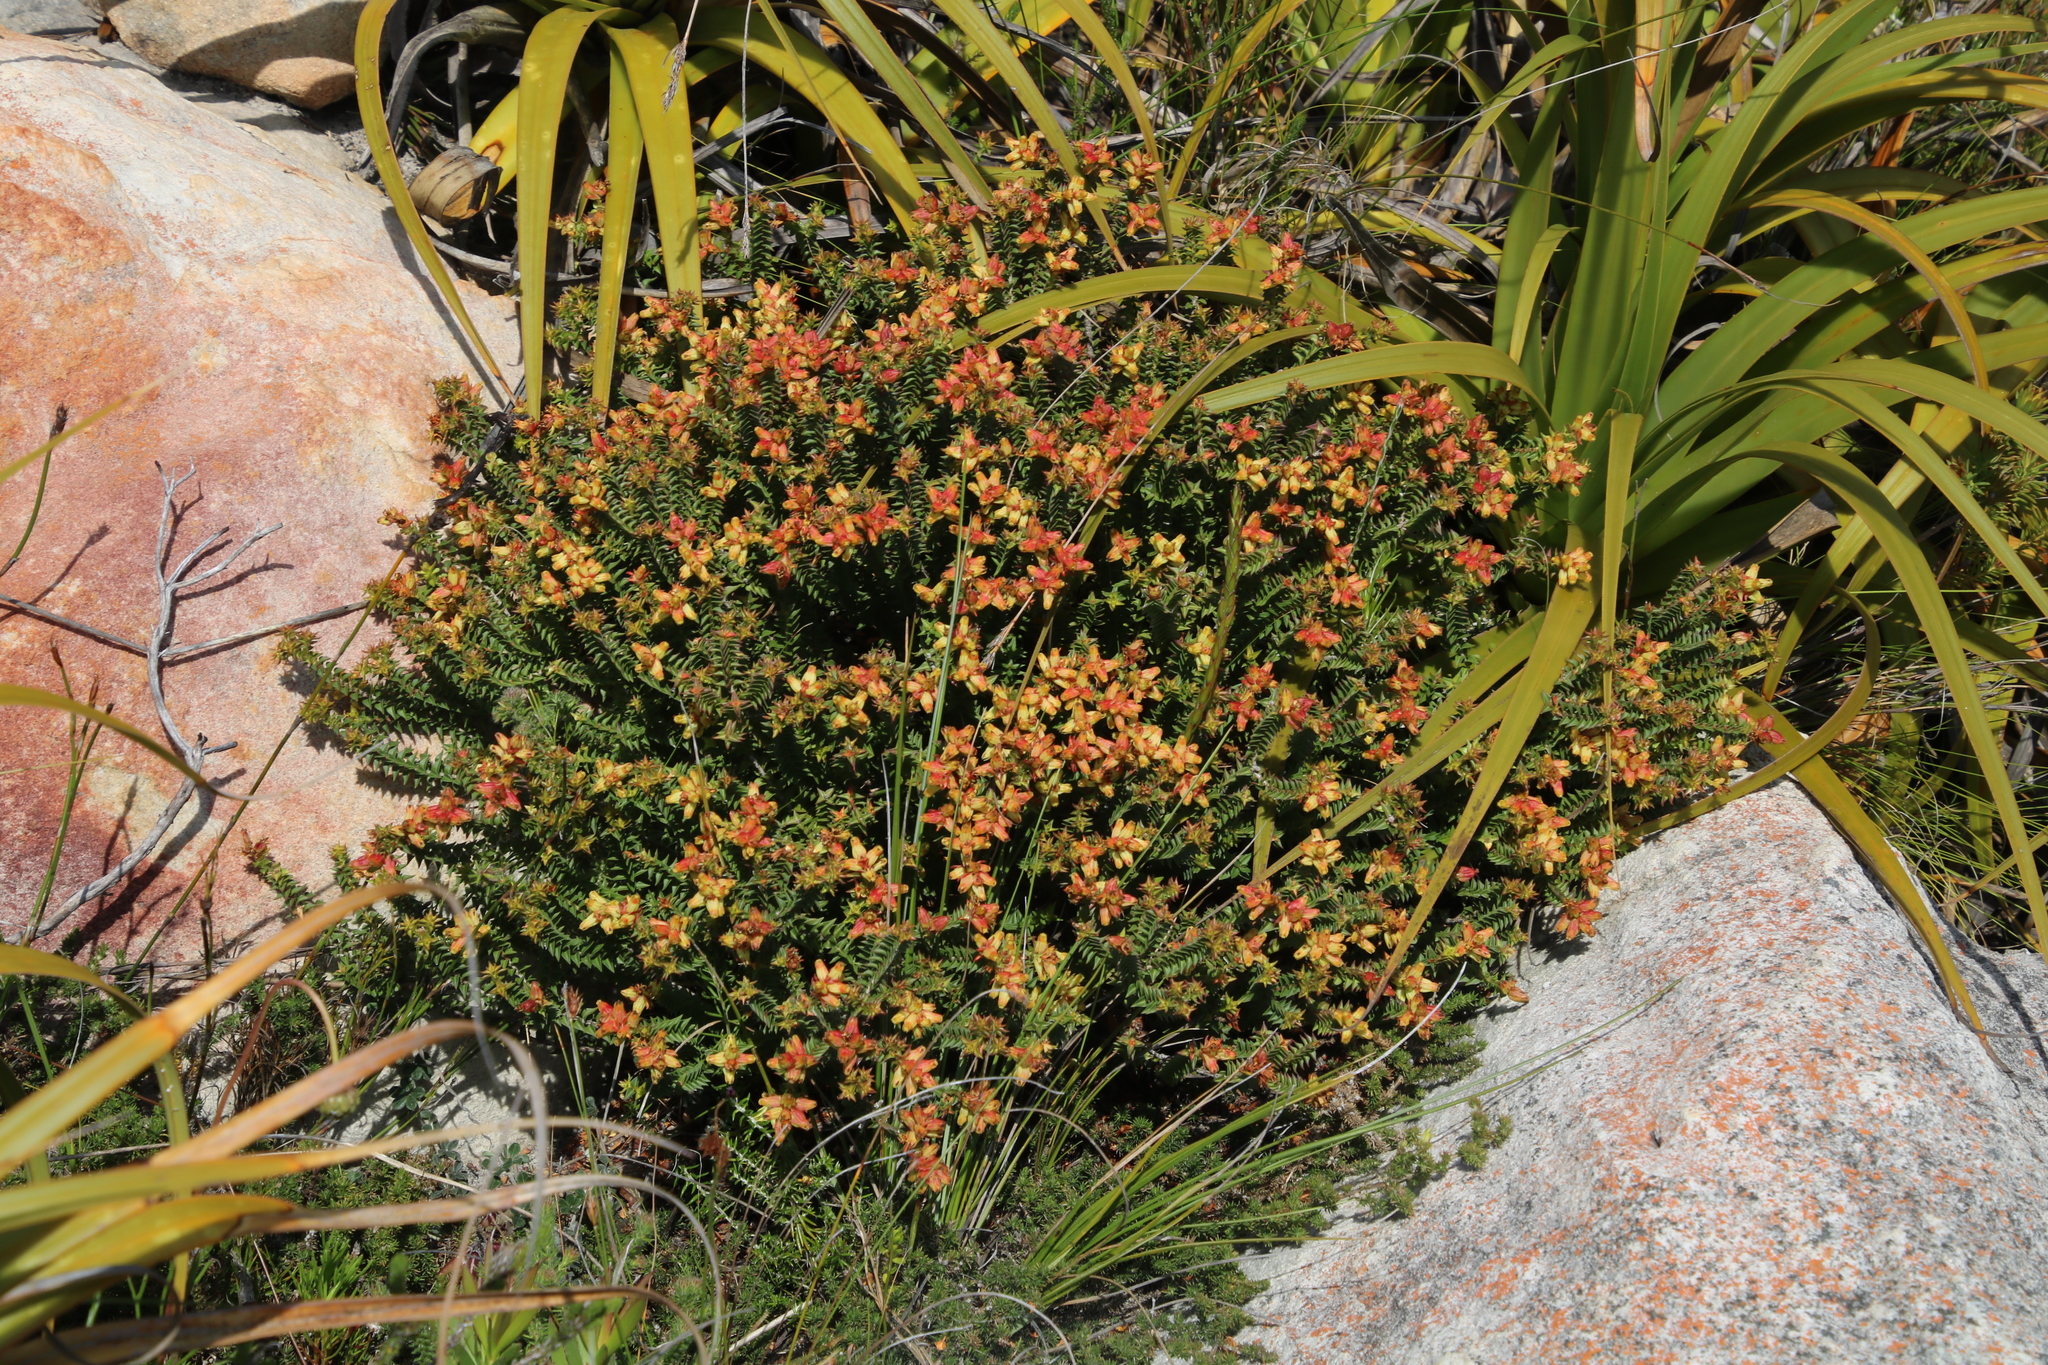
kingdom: Plantae
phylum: Tracheophyta
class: Magnoliopsida
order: Myrtales
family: Penaeaceae
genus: Penaea
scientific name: Penaea mucronata
